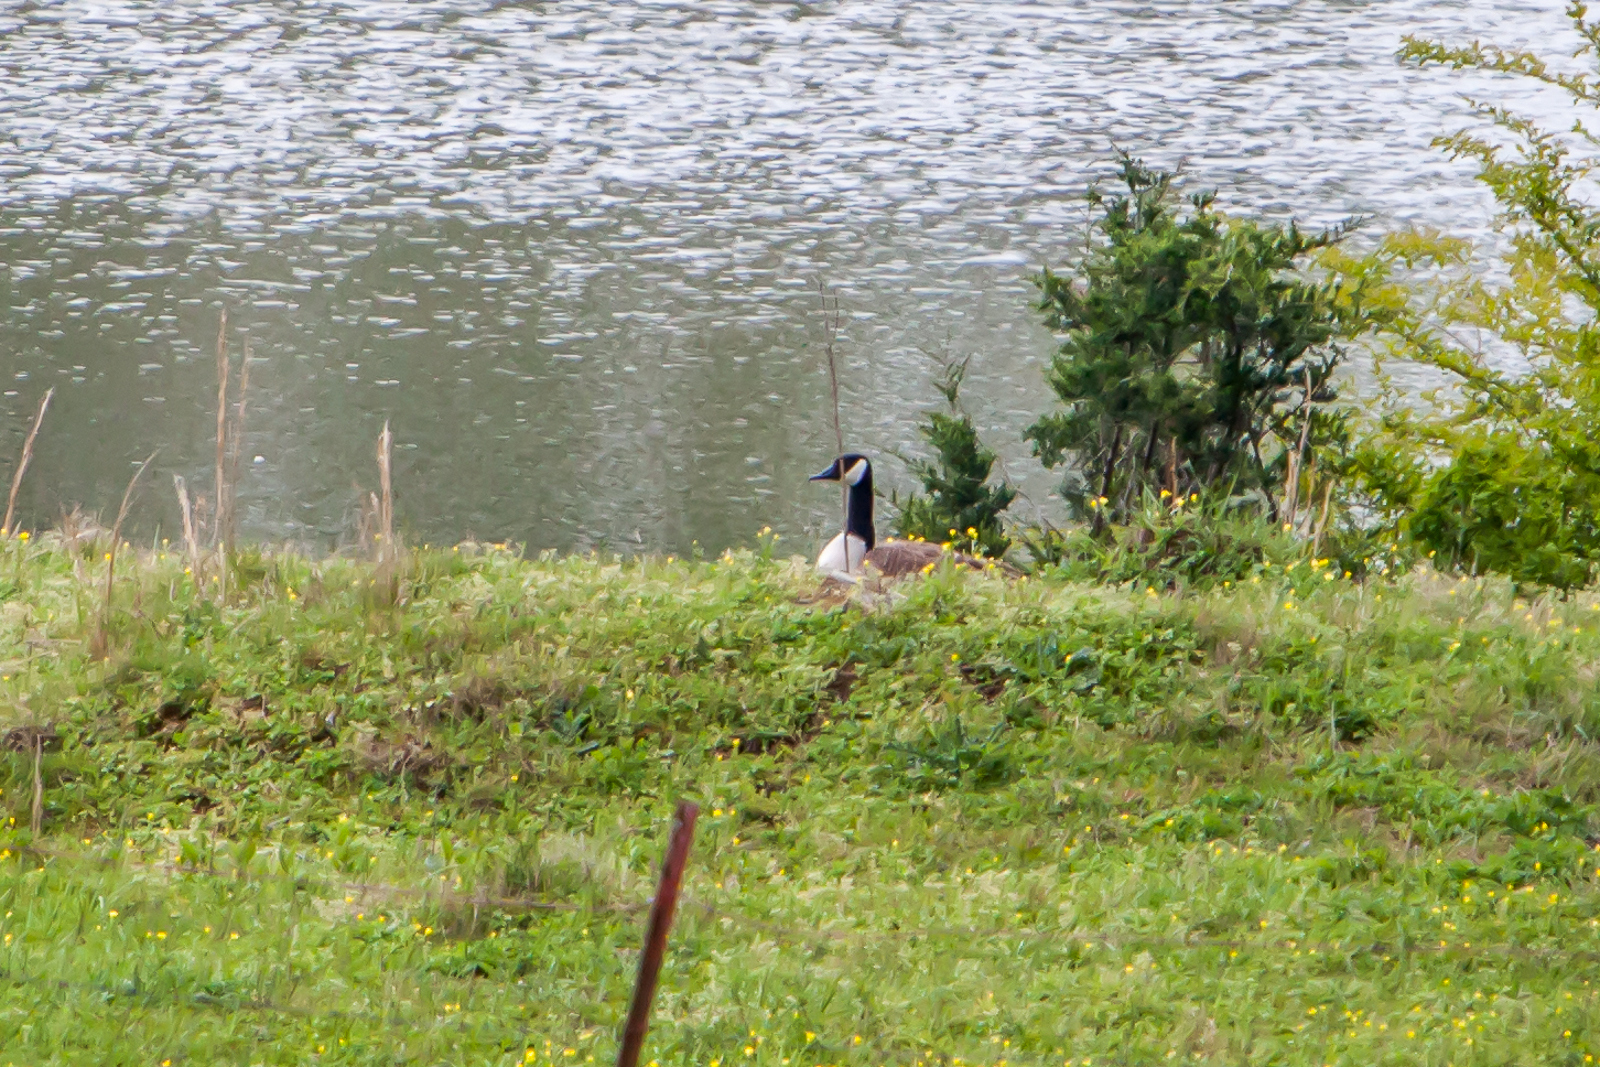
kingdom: Animalia
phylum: Chordata
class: Aves
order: Anseriformes
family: Anatidae
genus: Branta
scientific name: Branta canadensis
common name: Canada goose
